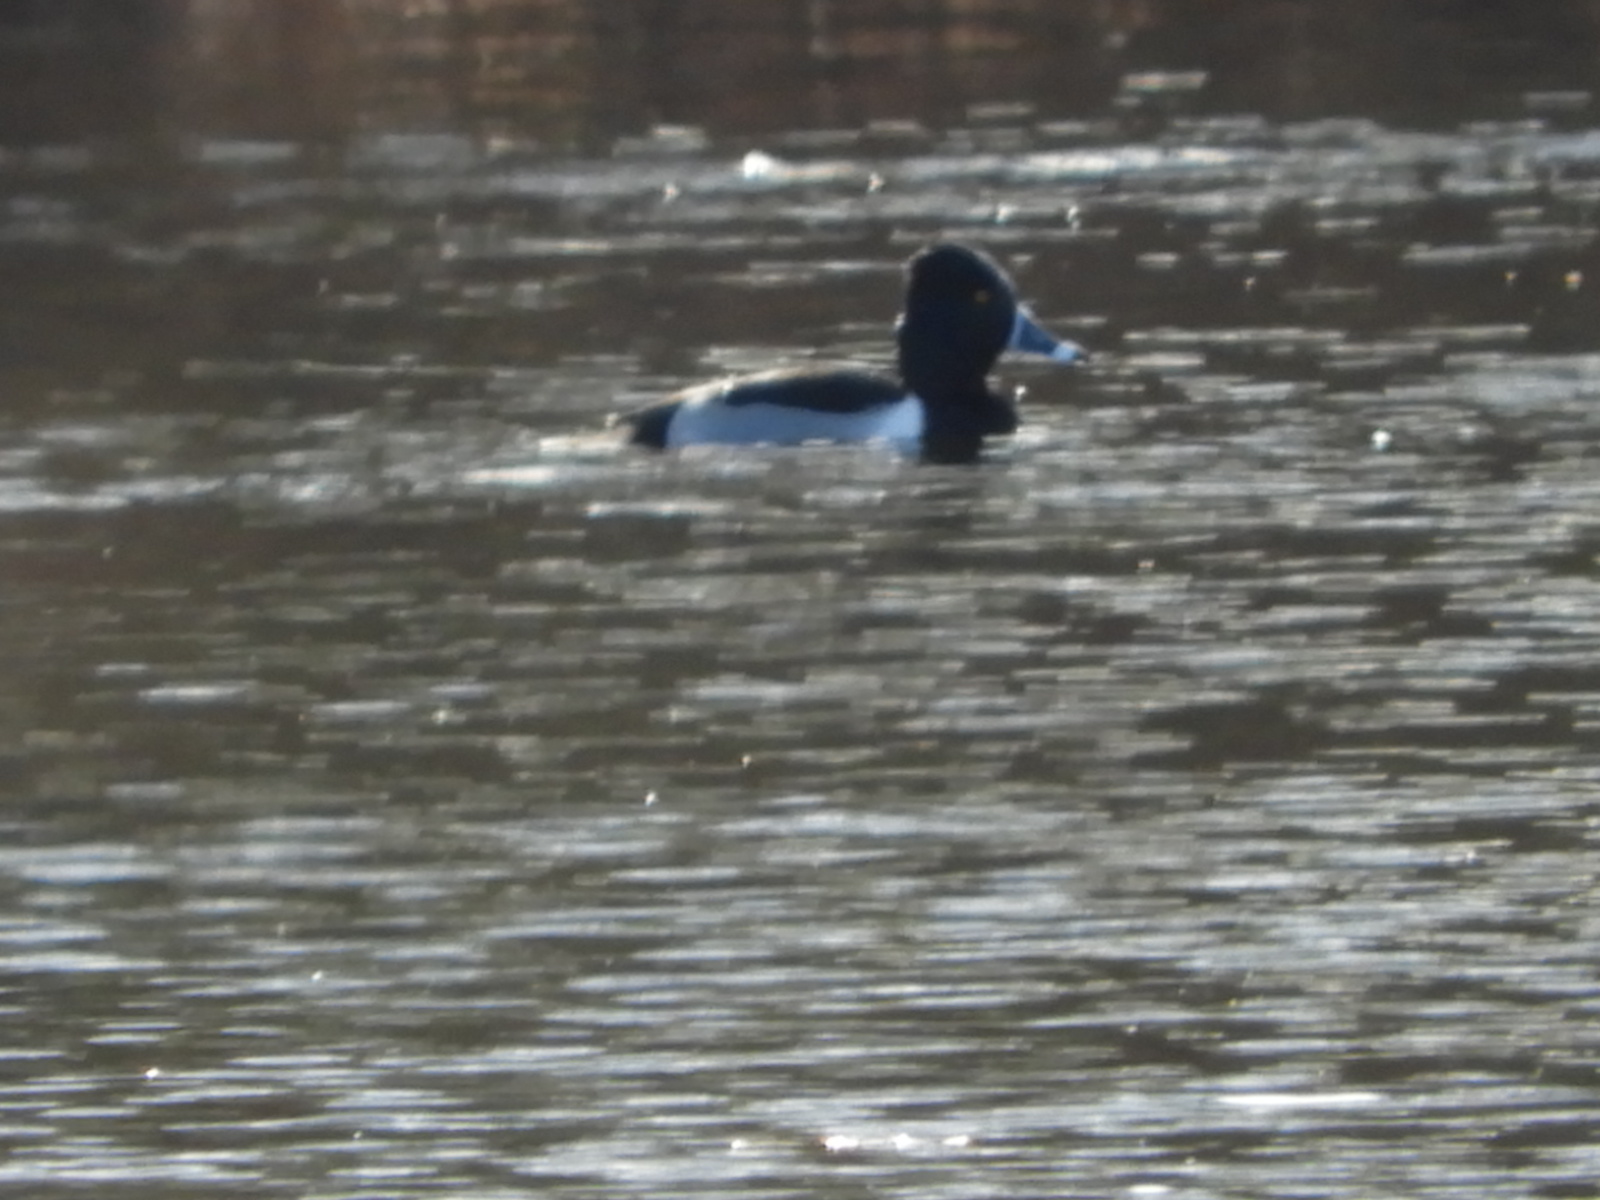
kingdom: Animalia
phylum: Chordata
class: Aves
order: Anseriformes
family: Anatidae
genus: Aythya
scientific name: Aythya collaris
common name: Ring-necked duck
